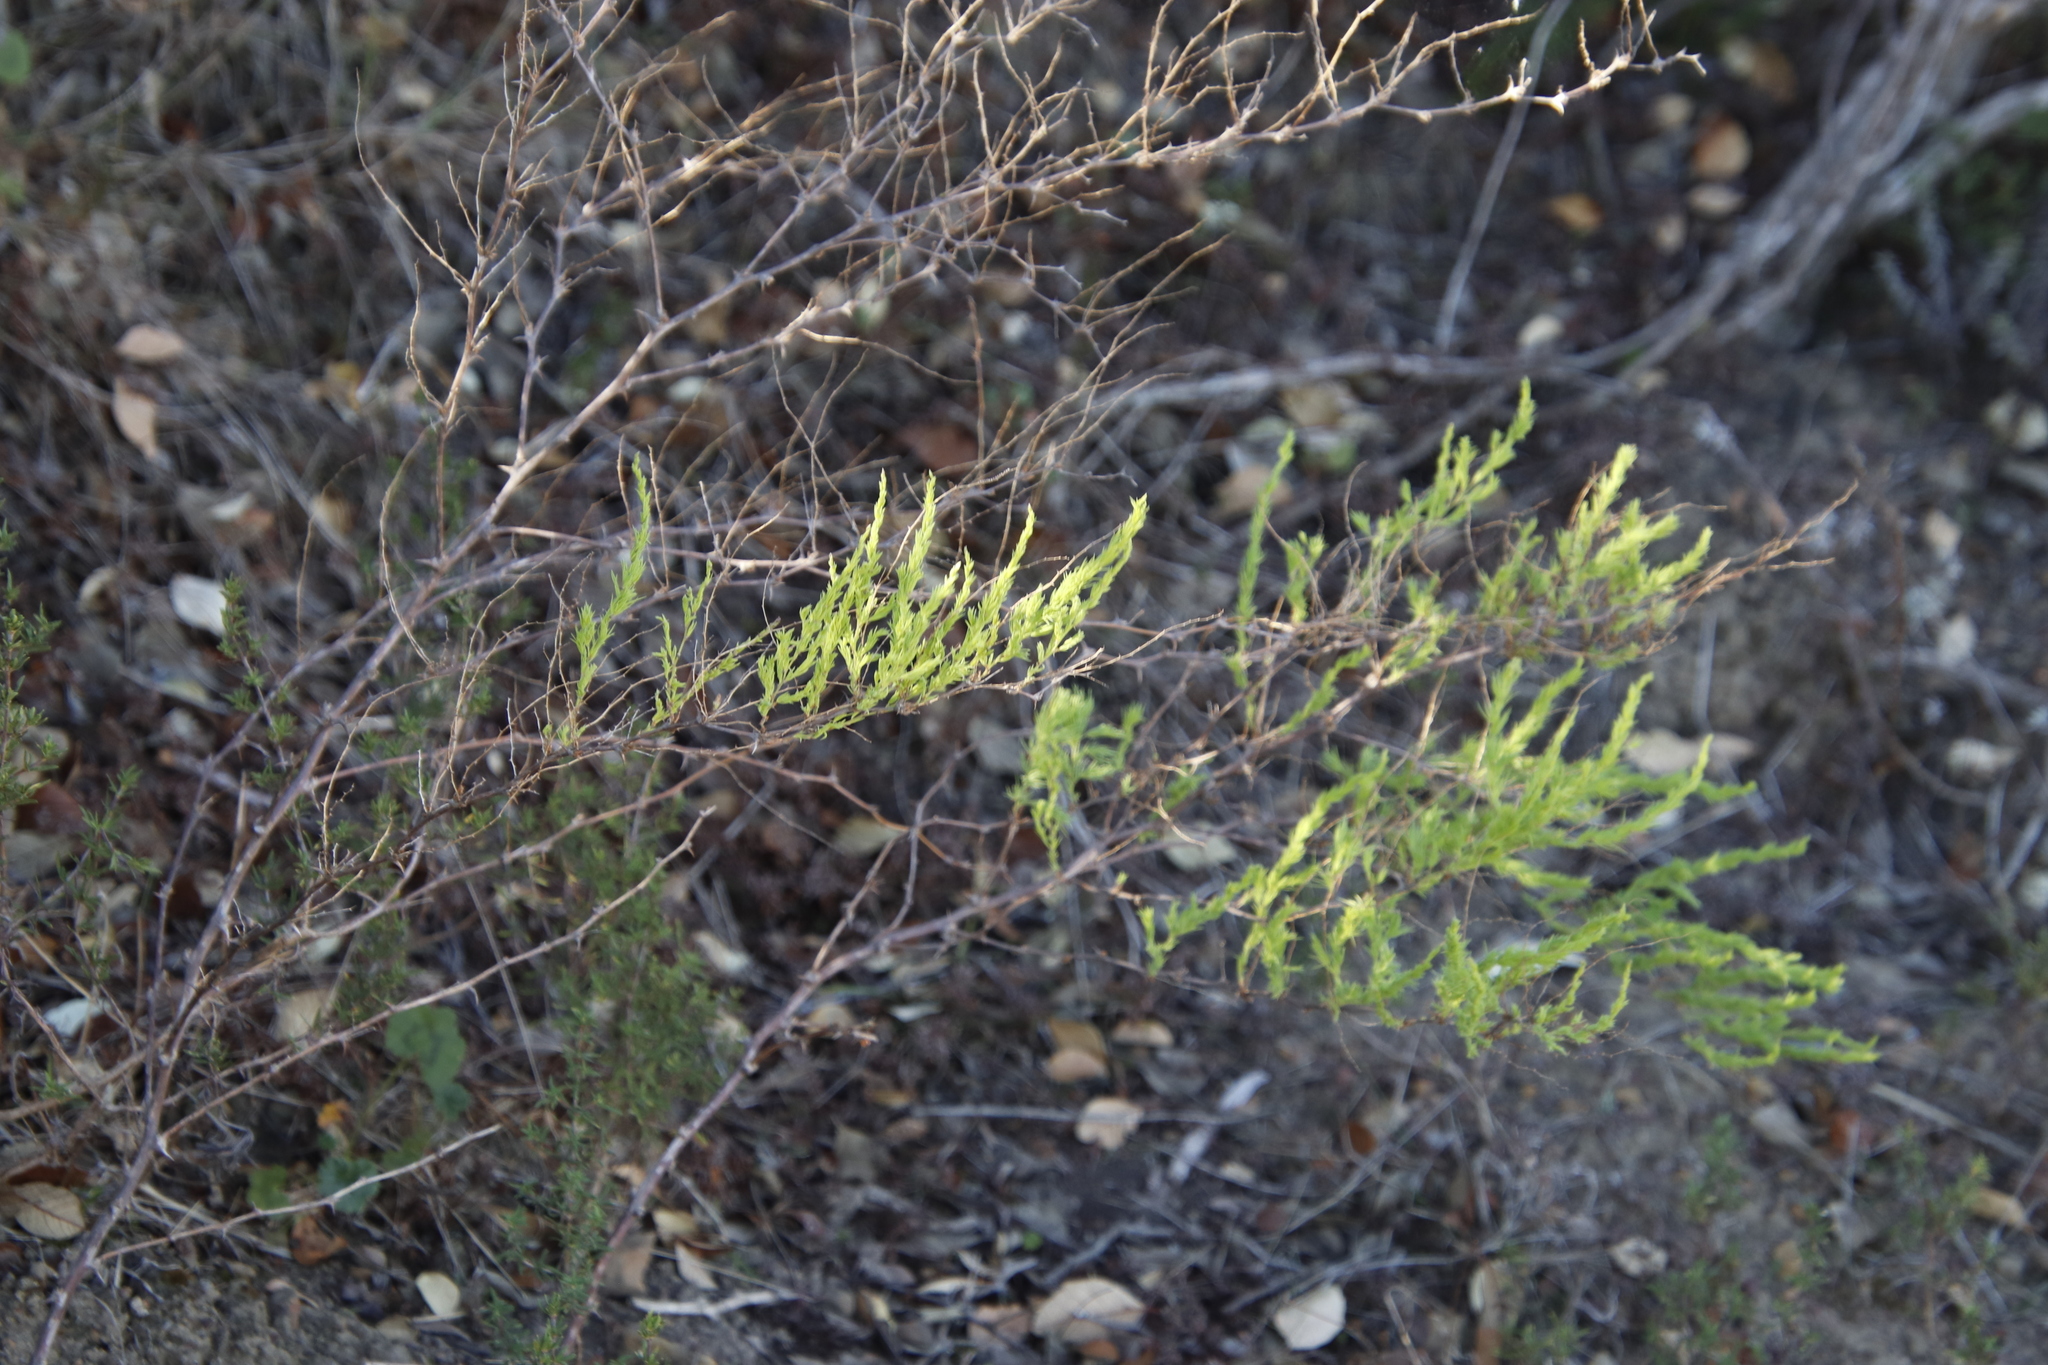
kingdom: Plantae
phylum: Tracheophyta
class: Liliopsida
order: Asparagales
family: Asparagaceae
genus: Asparagus
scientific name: Asparagus rubicundus
